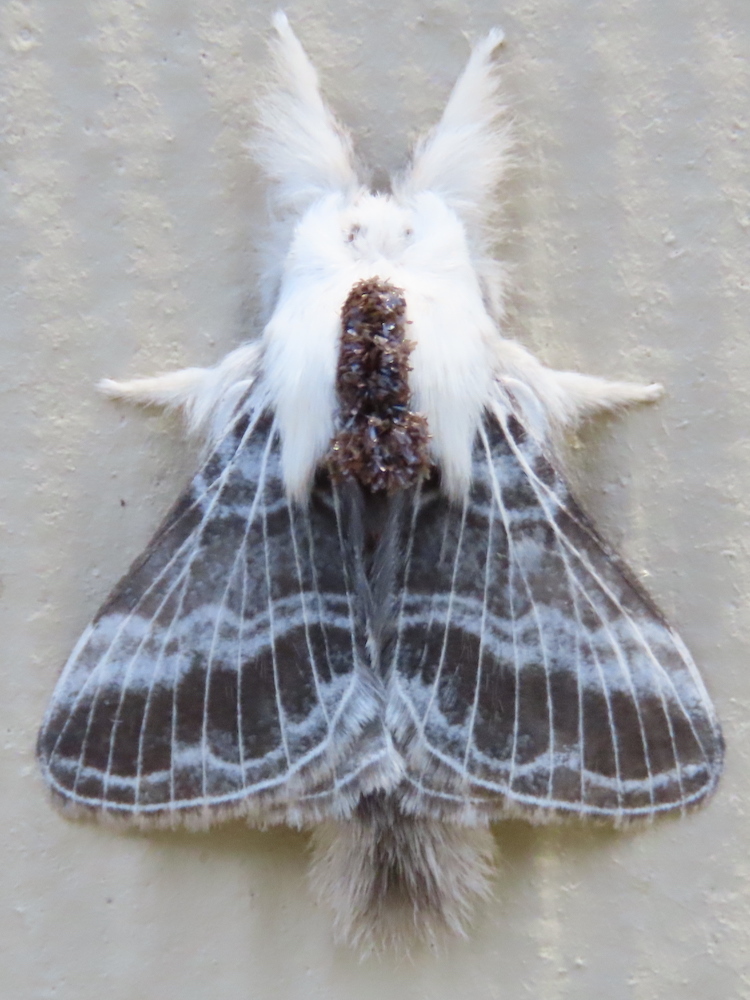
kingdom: Animalia
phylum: Arthropoda
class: Insecta
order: Lepidoptera
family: Lasiocampidae
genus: Tolype
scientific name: Tolype velleda
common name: Large tolype moth
